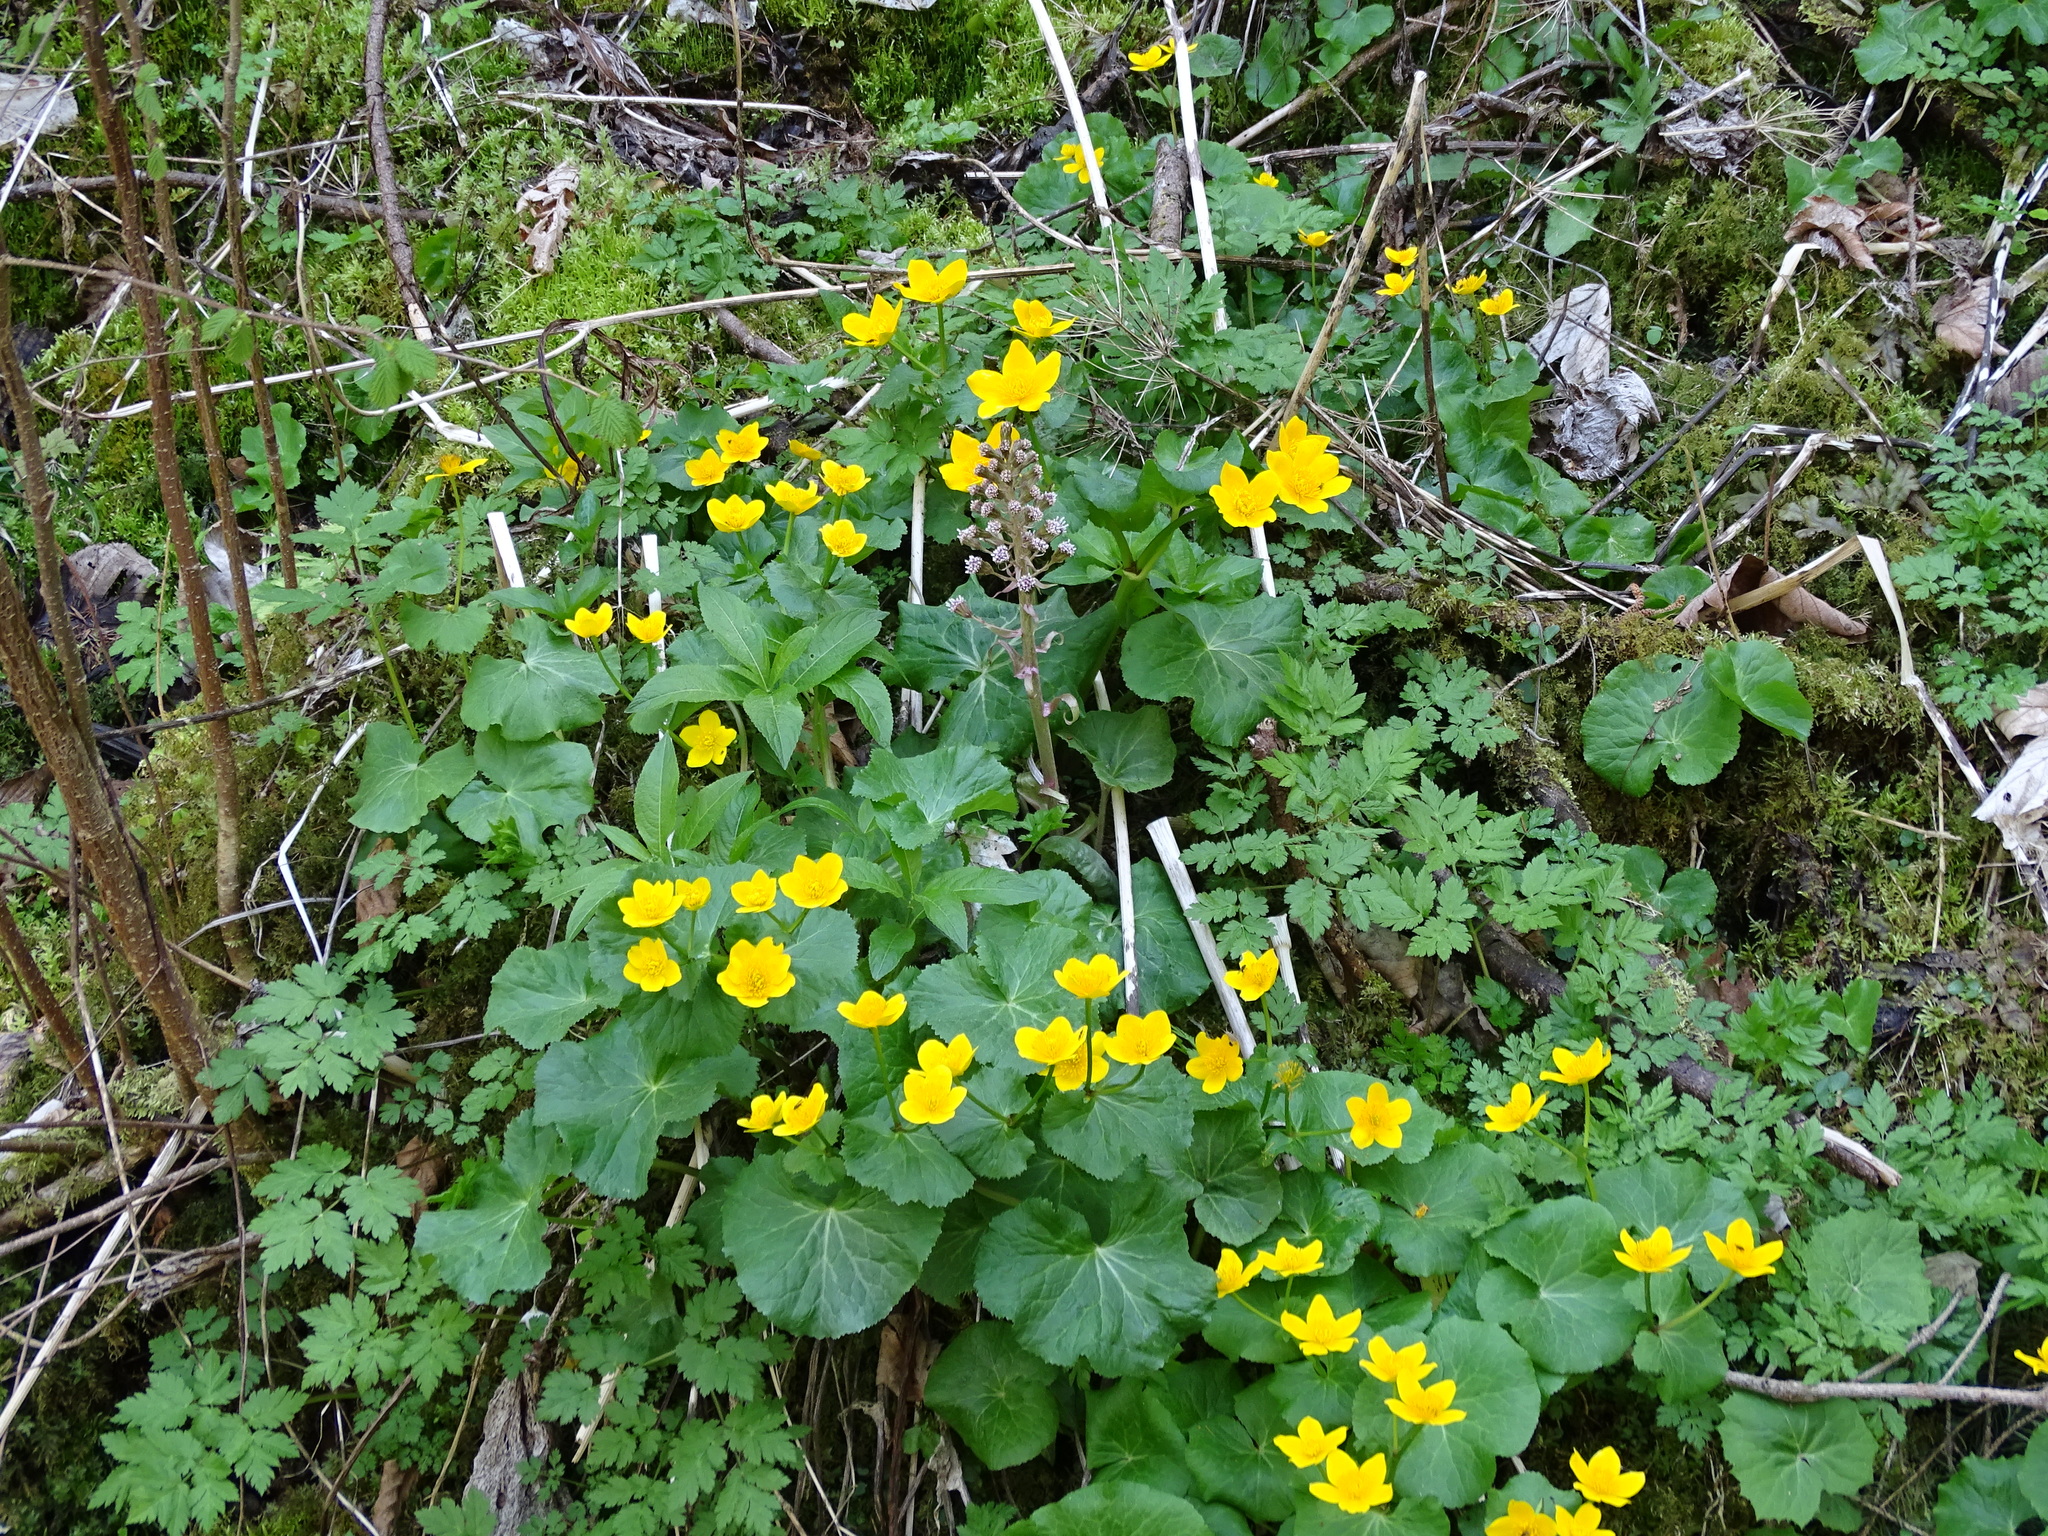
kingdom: Plantae
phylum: Tracheophyta
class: Magnoliopsida
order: Ranunculales
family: Ranunculaceae
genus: Caltha
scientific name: Caltha palustris
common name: Marsh marigold
